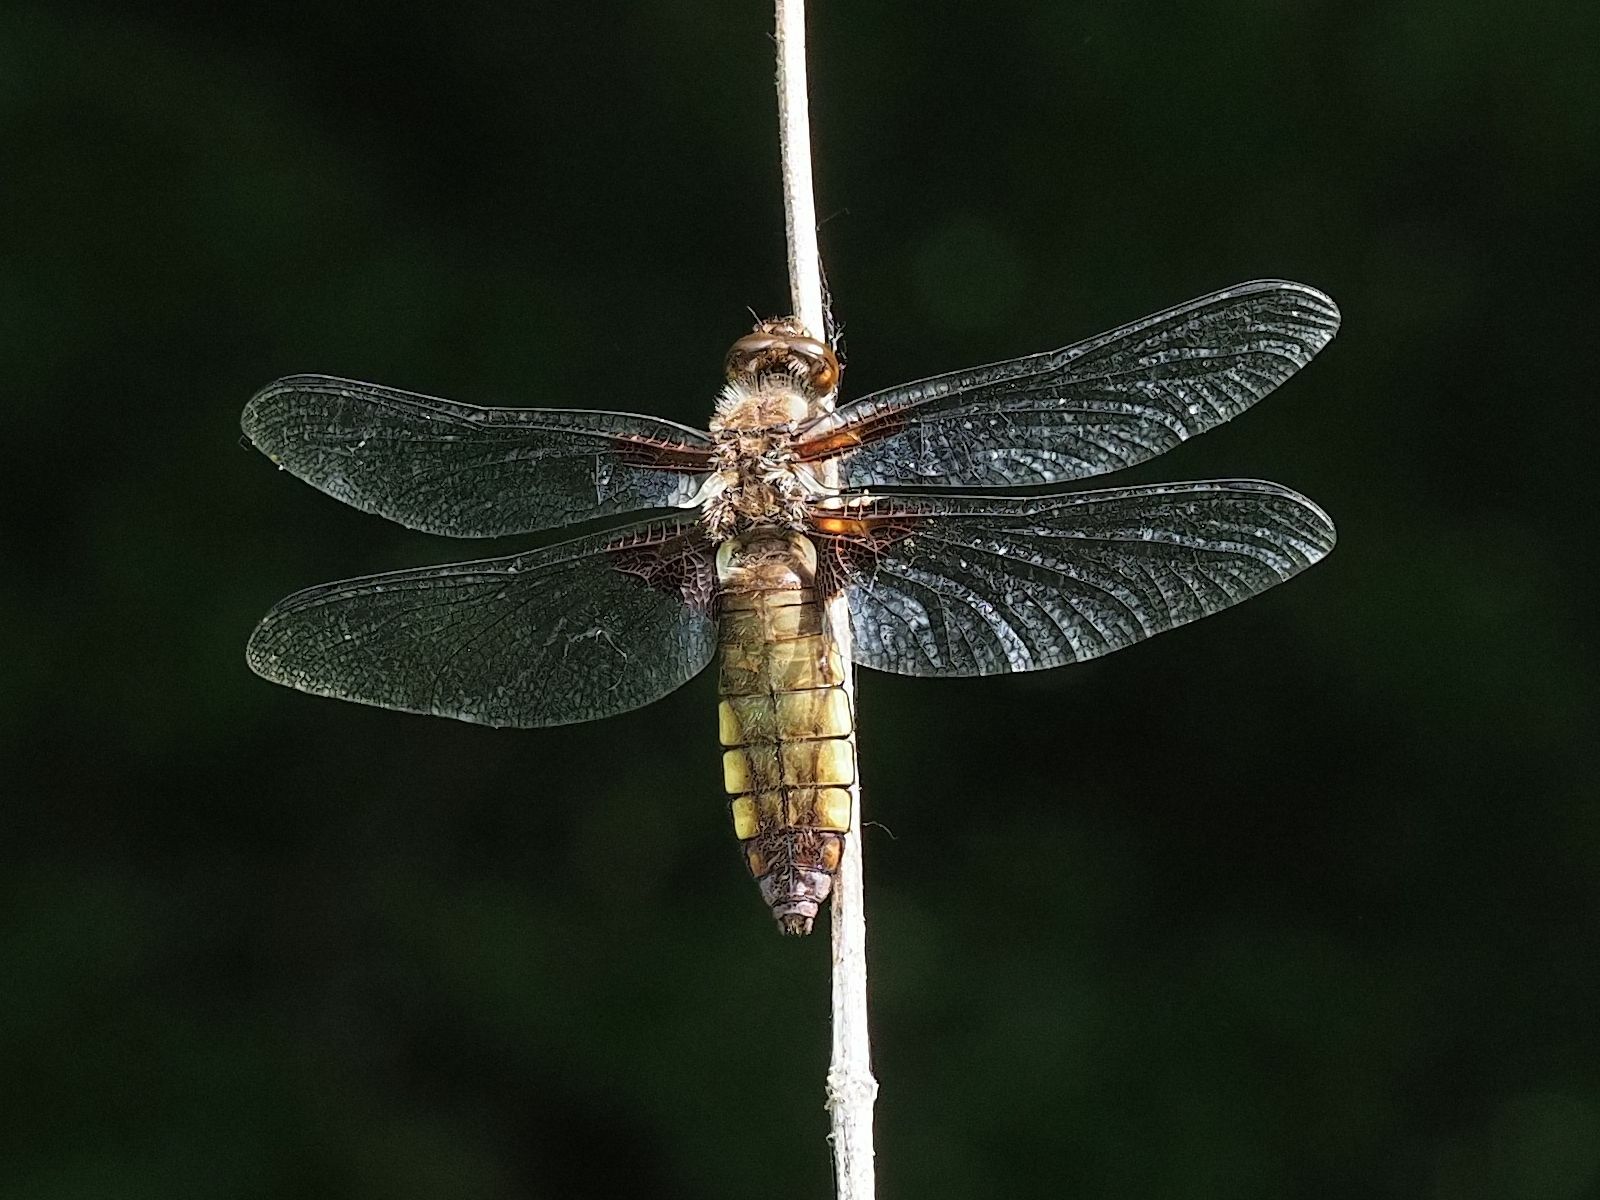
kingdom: Animalia
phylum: Arthropoda
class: Insecta
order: Odonata
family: Libellulidae
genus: Libellula
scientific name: Libellula depressa
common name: Broad-bodied chaser
